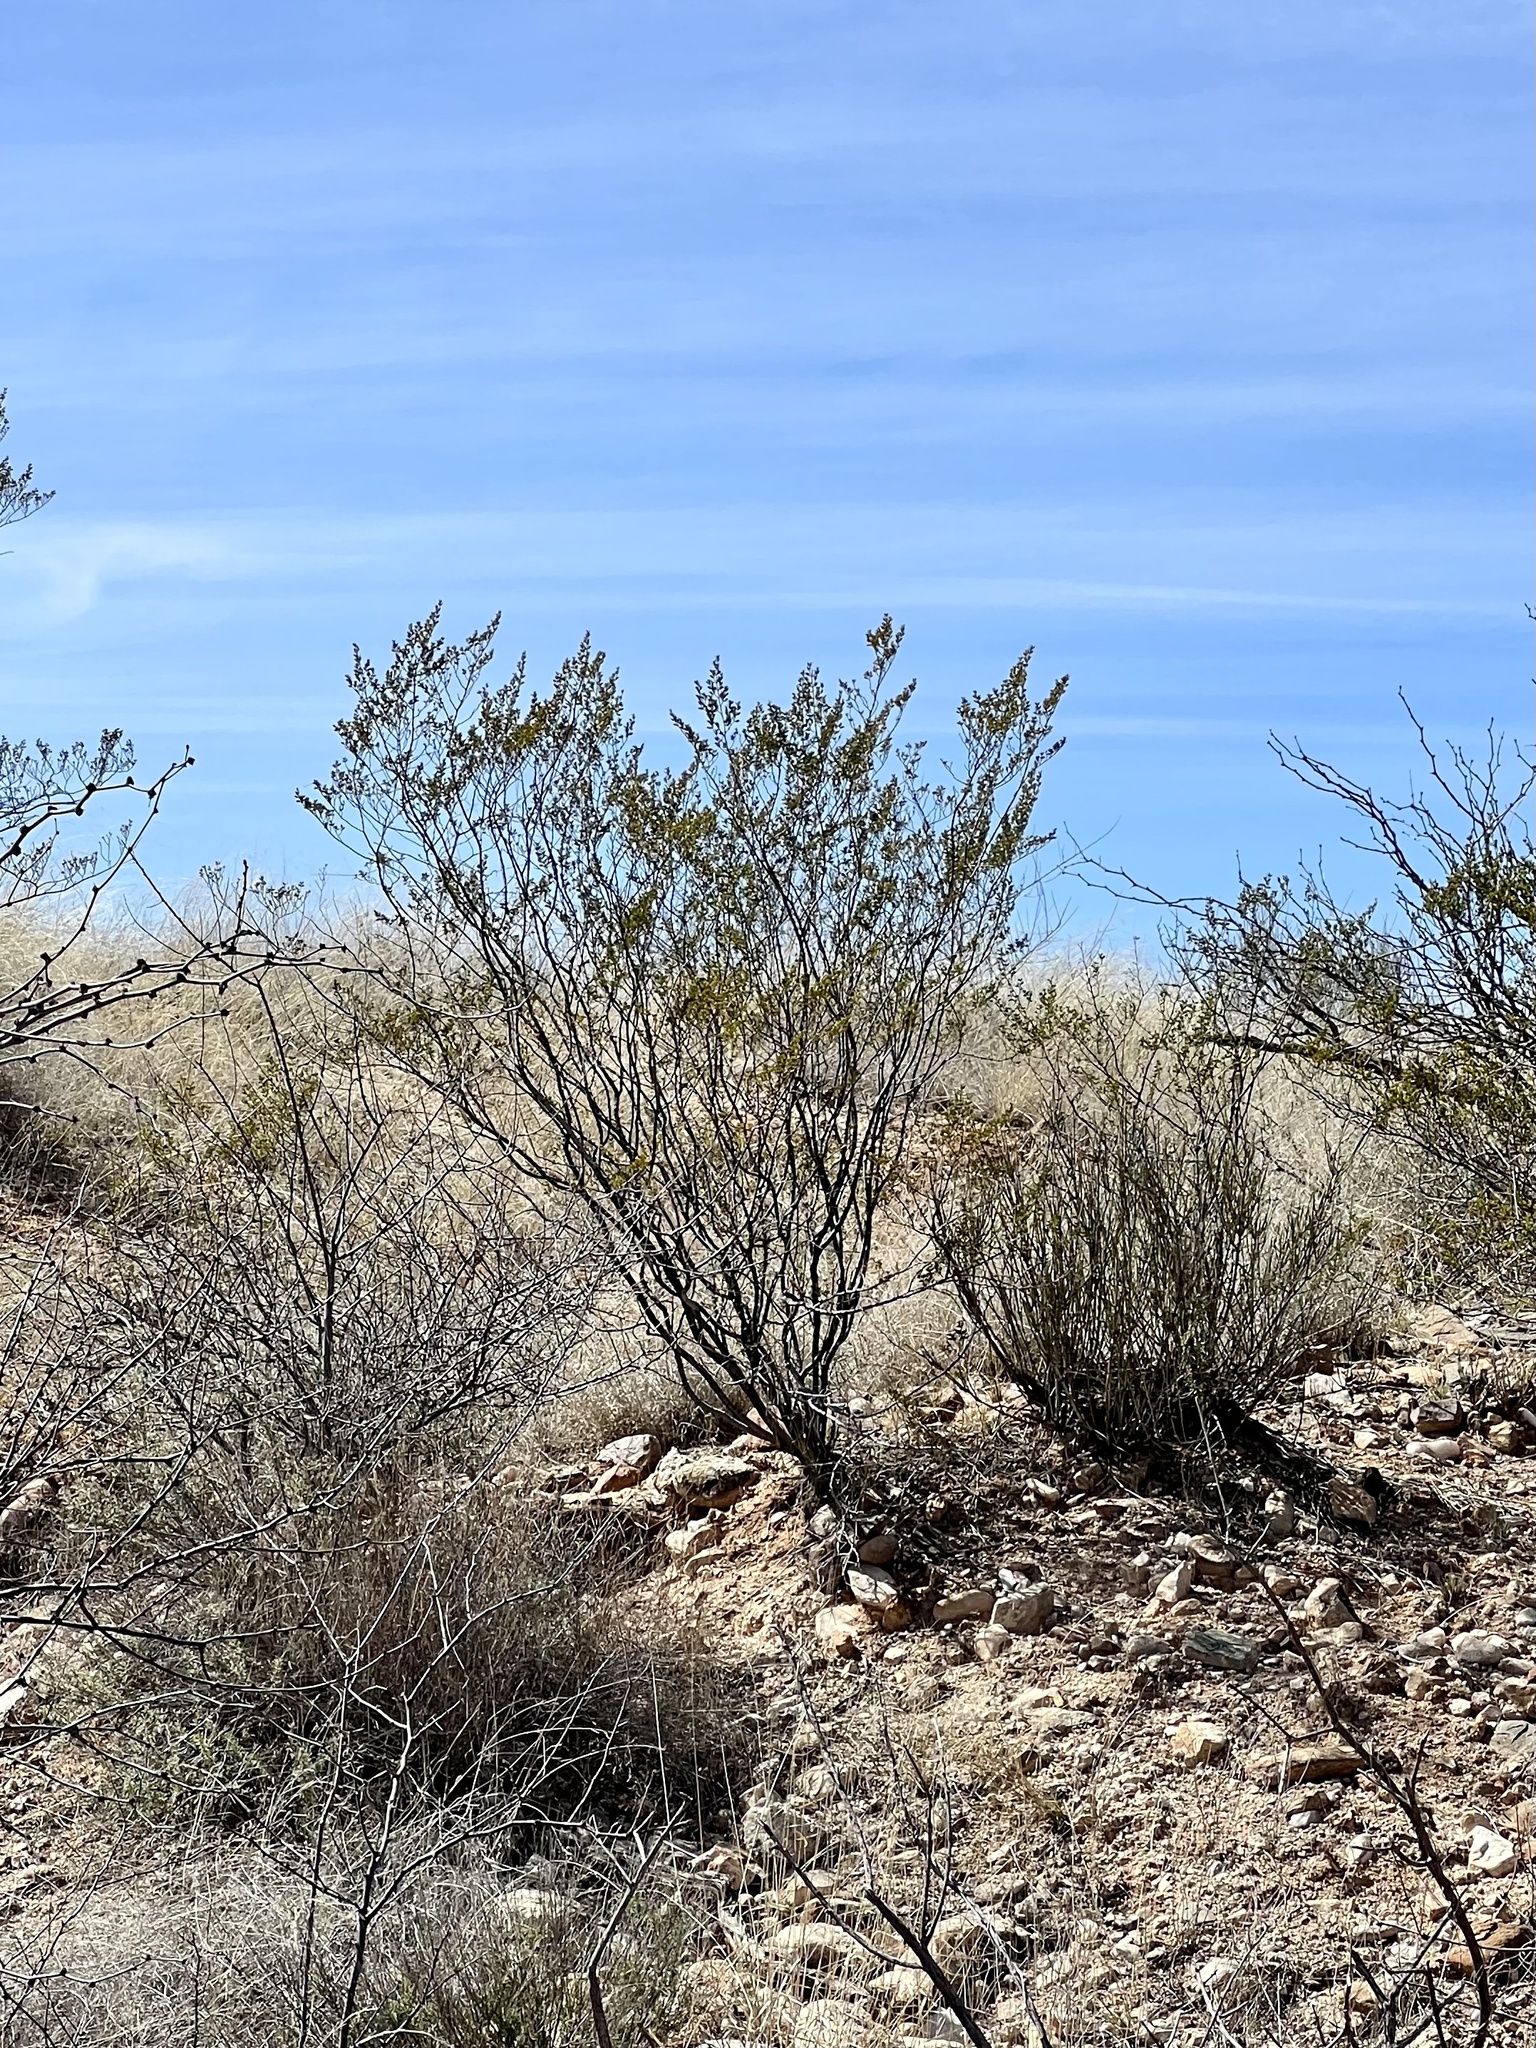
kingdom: Plantae
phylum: Tracheophyta
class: Magnoliopsida
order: Zygophyllales
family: Zygophyllaceae
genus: Larrea
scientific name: Larrea tridentata
